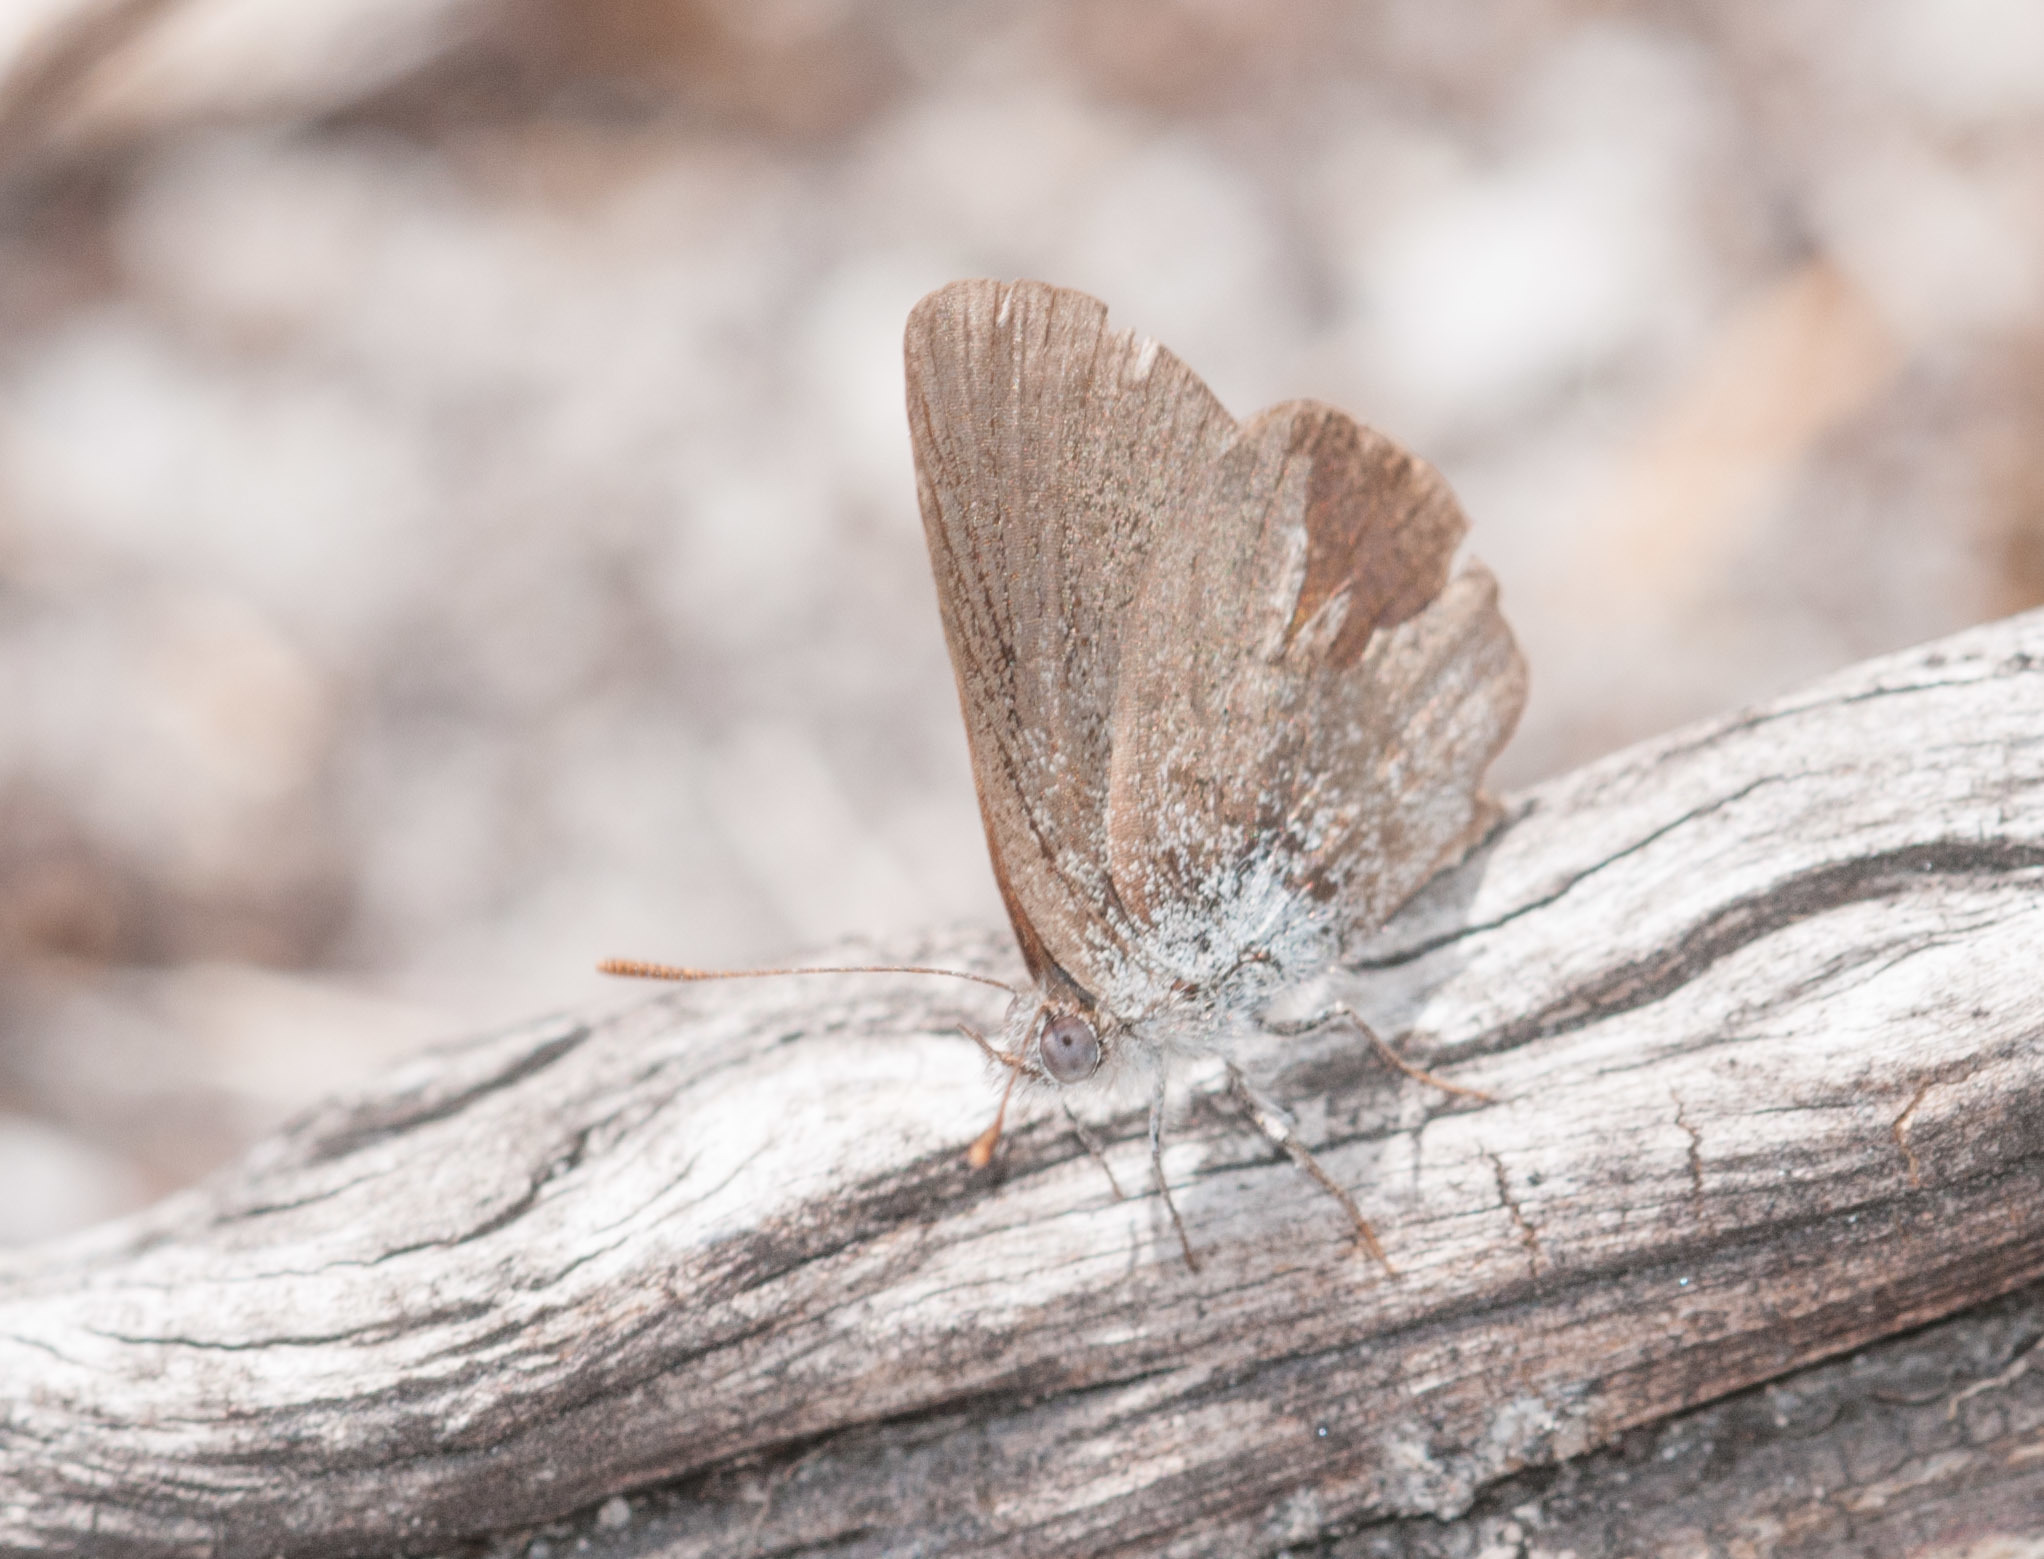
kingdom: Animalia
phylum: Arthropoda
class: Insecta
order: Lepidoptera
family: Lycaenidae
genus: Zizina
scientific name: Zizina labradus
